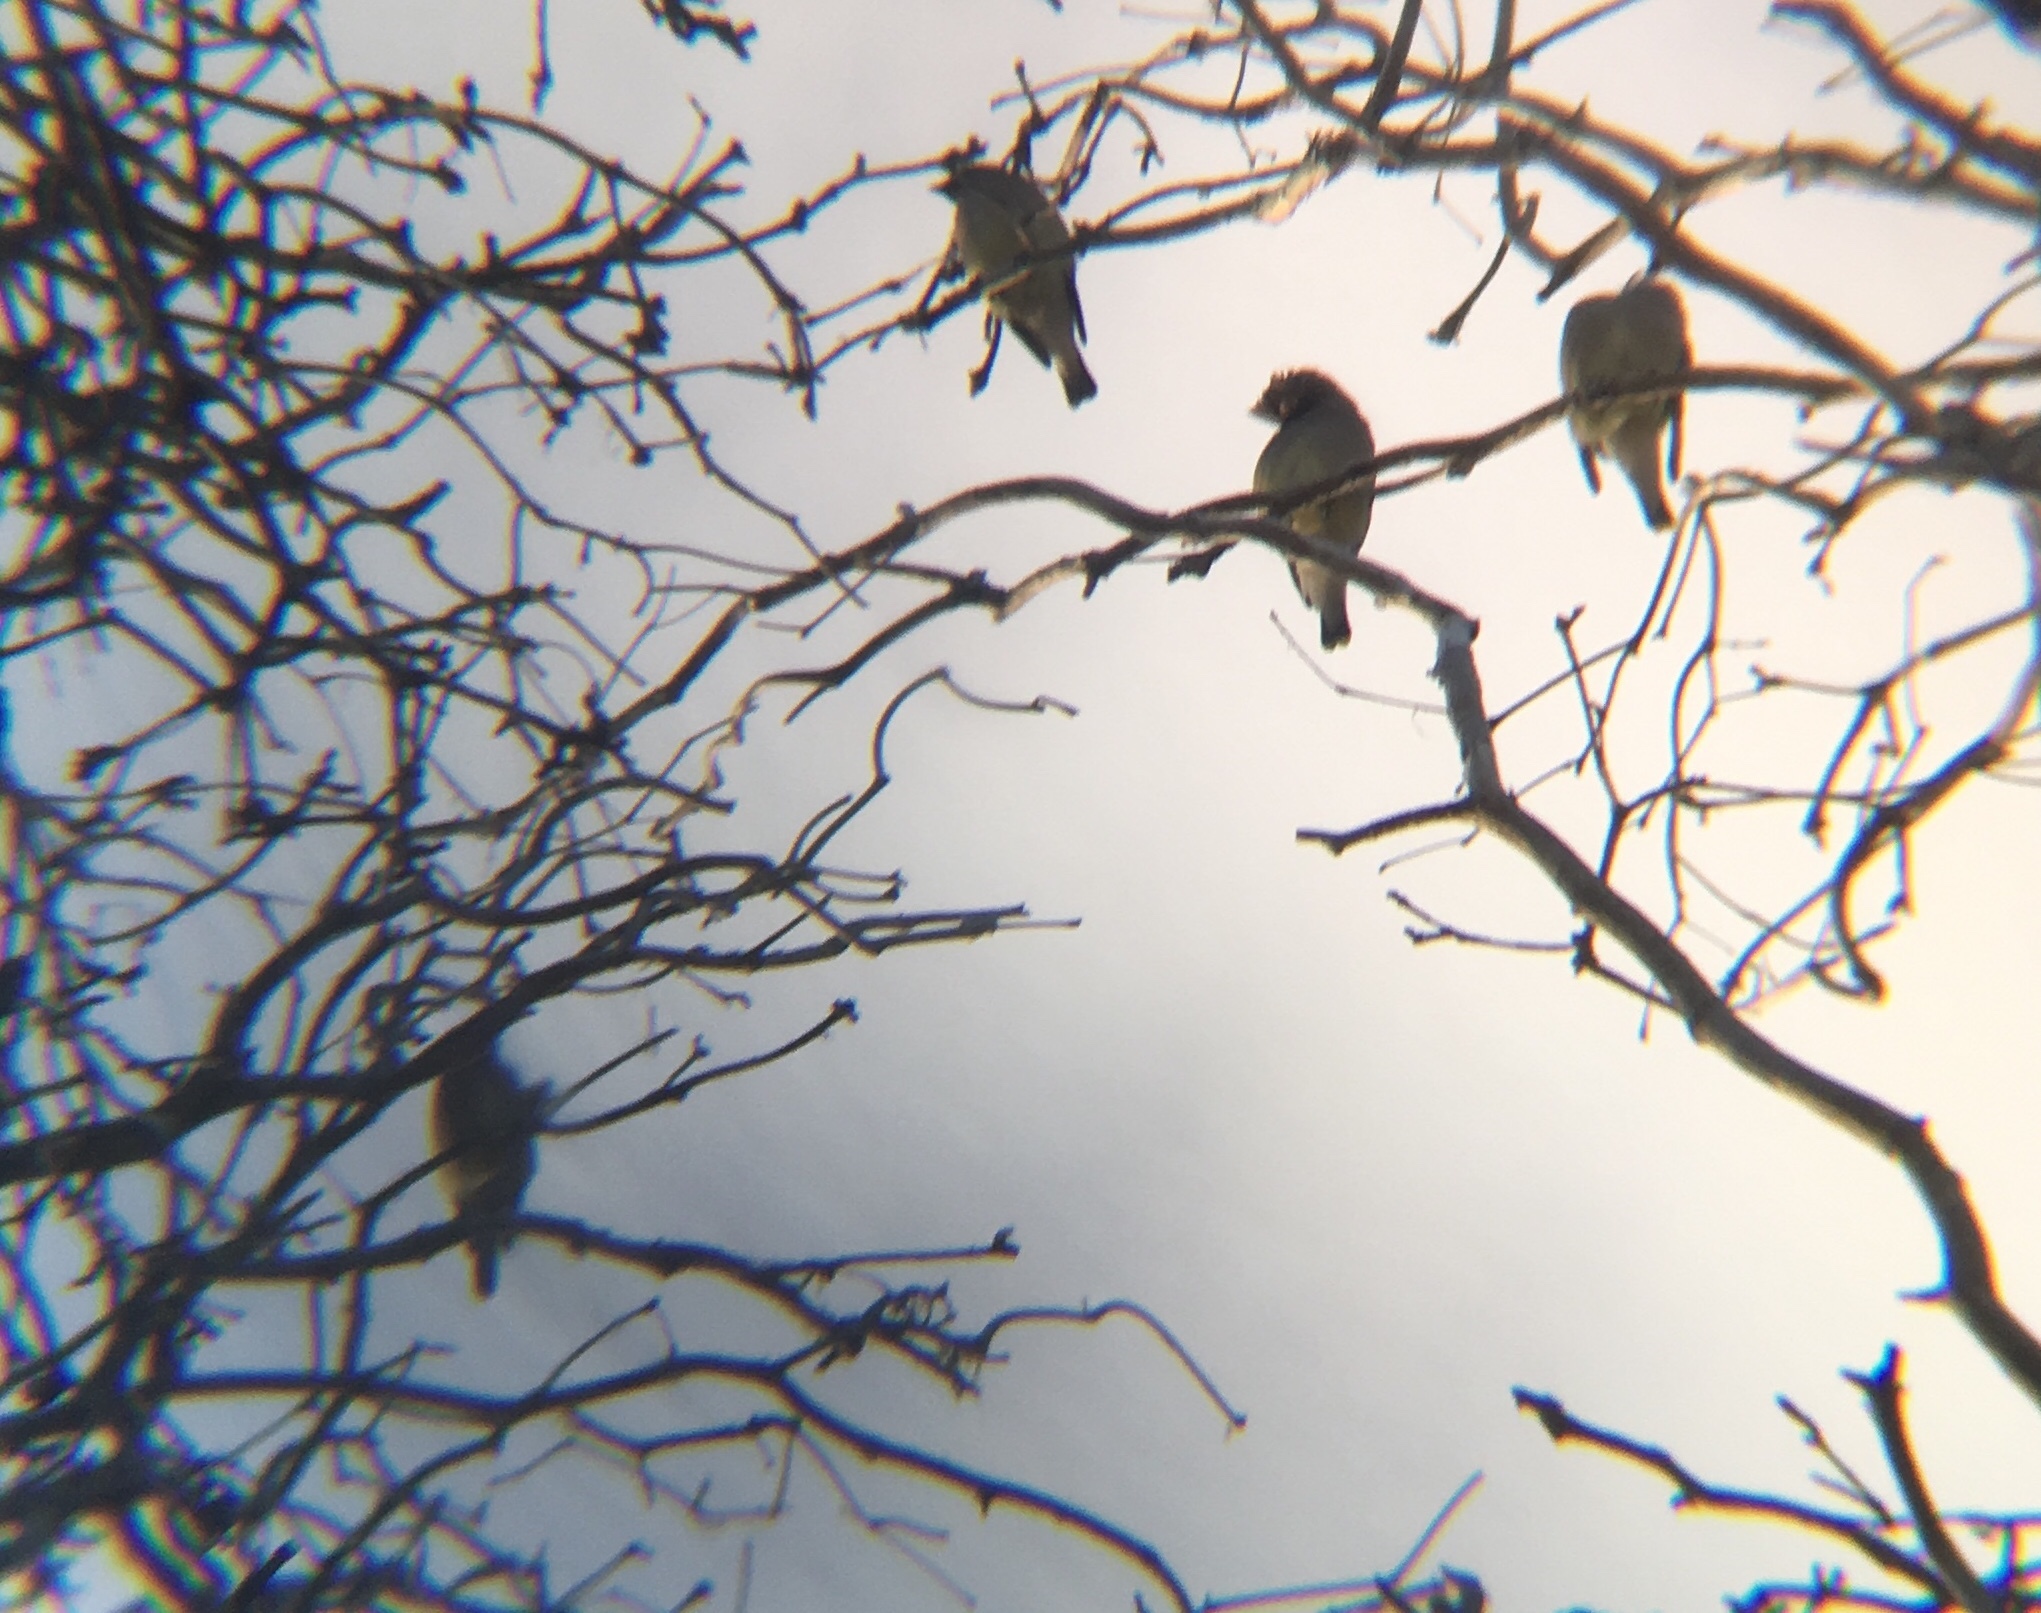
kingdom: Animalia
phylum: Chordata
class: Aves
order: Passeriformes
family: Bombycillidae
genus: Bombycilla
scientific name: Bombycilla cedrorum
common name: Cedar waxwing
